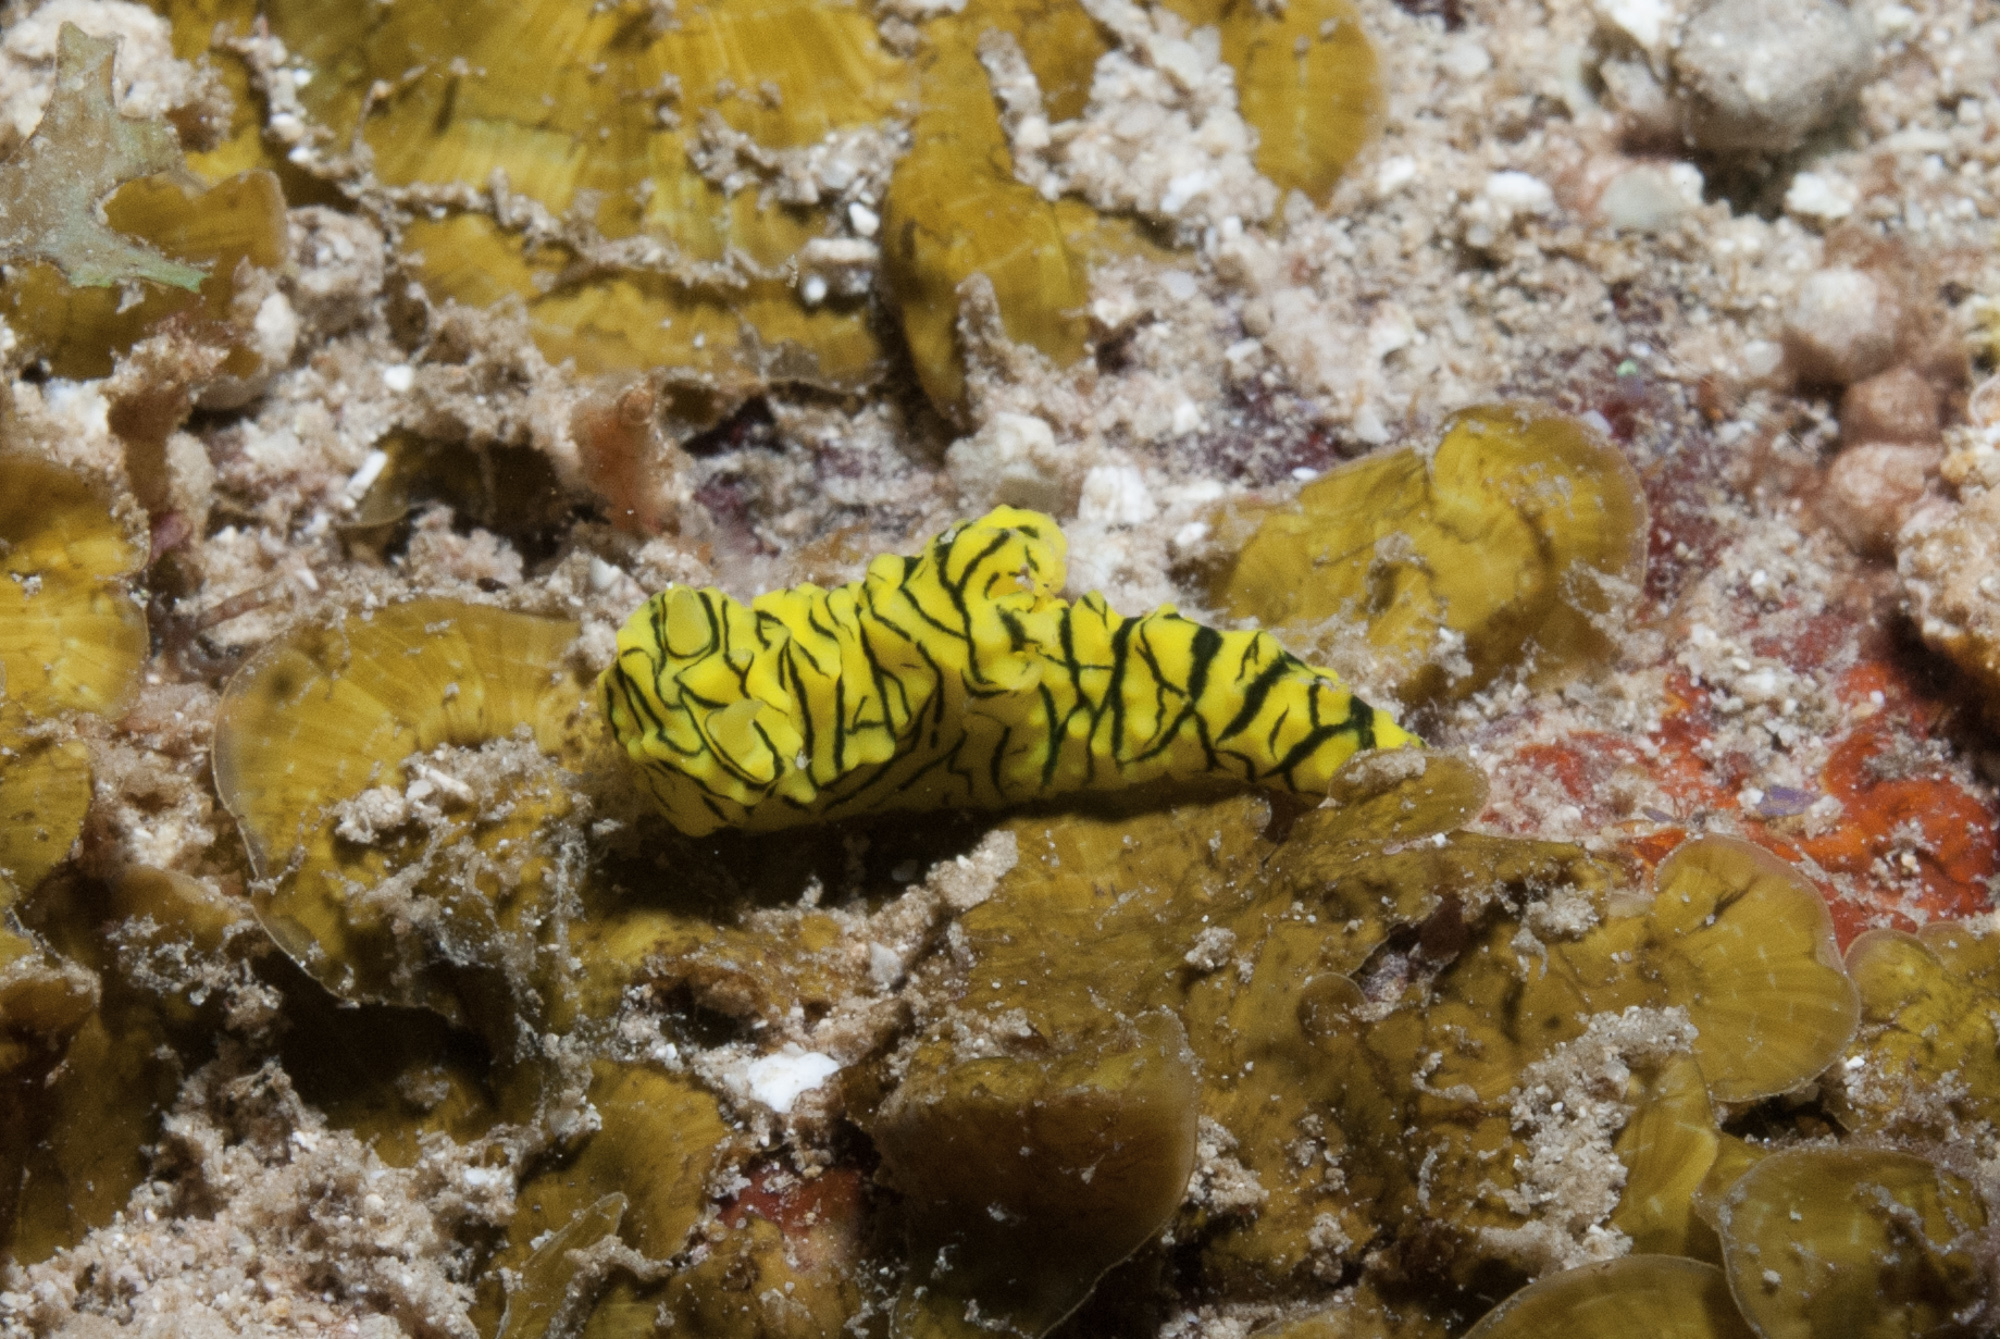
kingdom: Animalia
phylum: Mollusca
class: Gastropoda
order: Nudibranchia
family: Aegiridae
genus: Notodoris
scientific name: Notodoris minor
